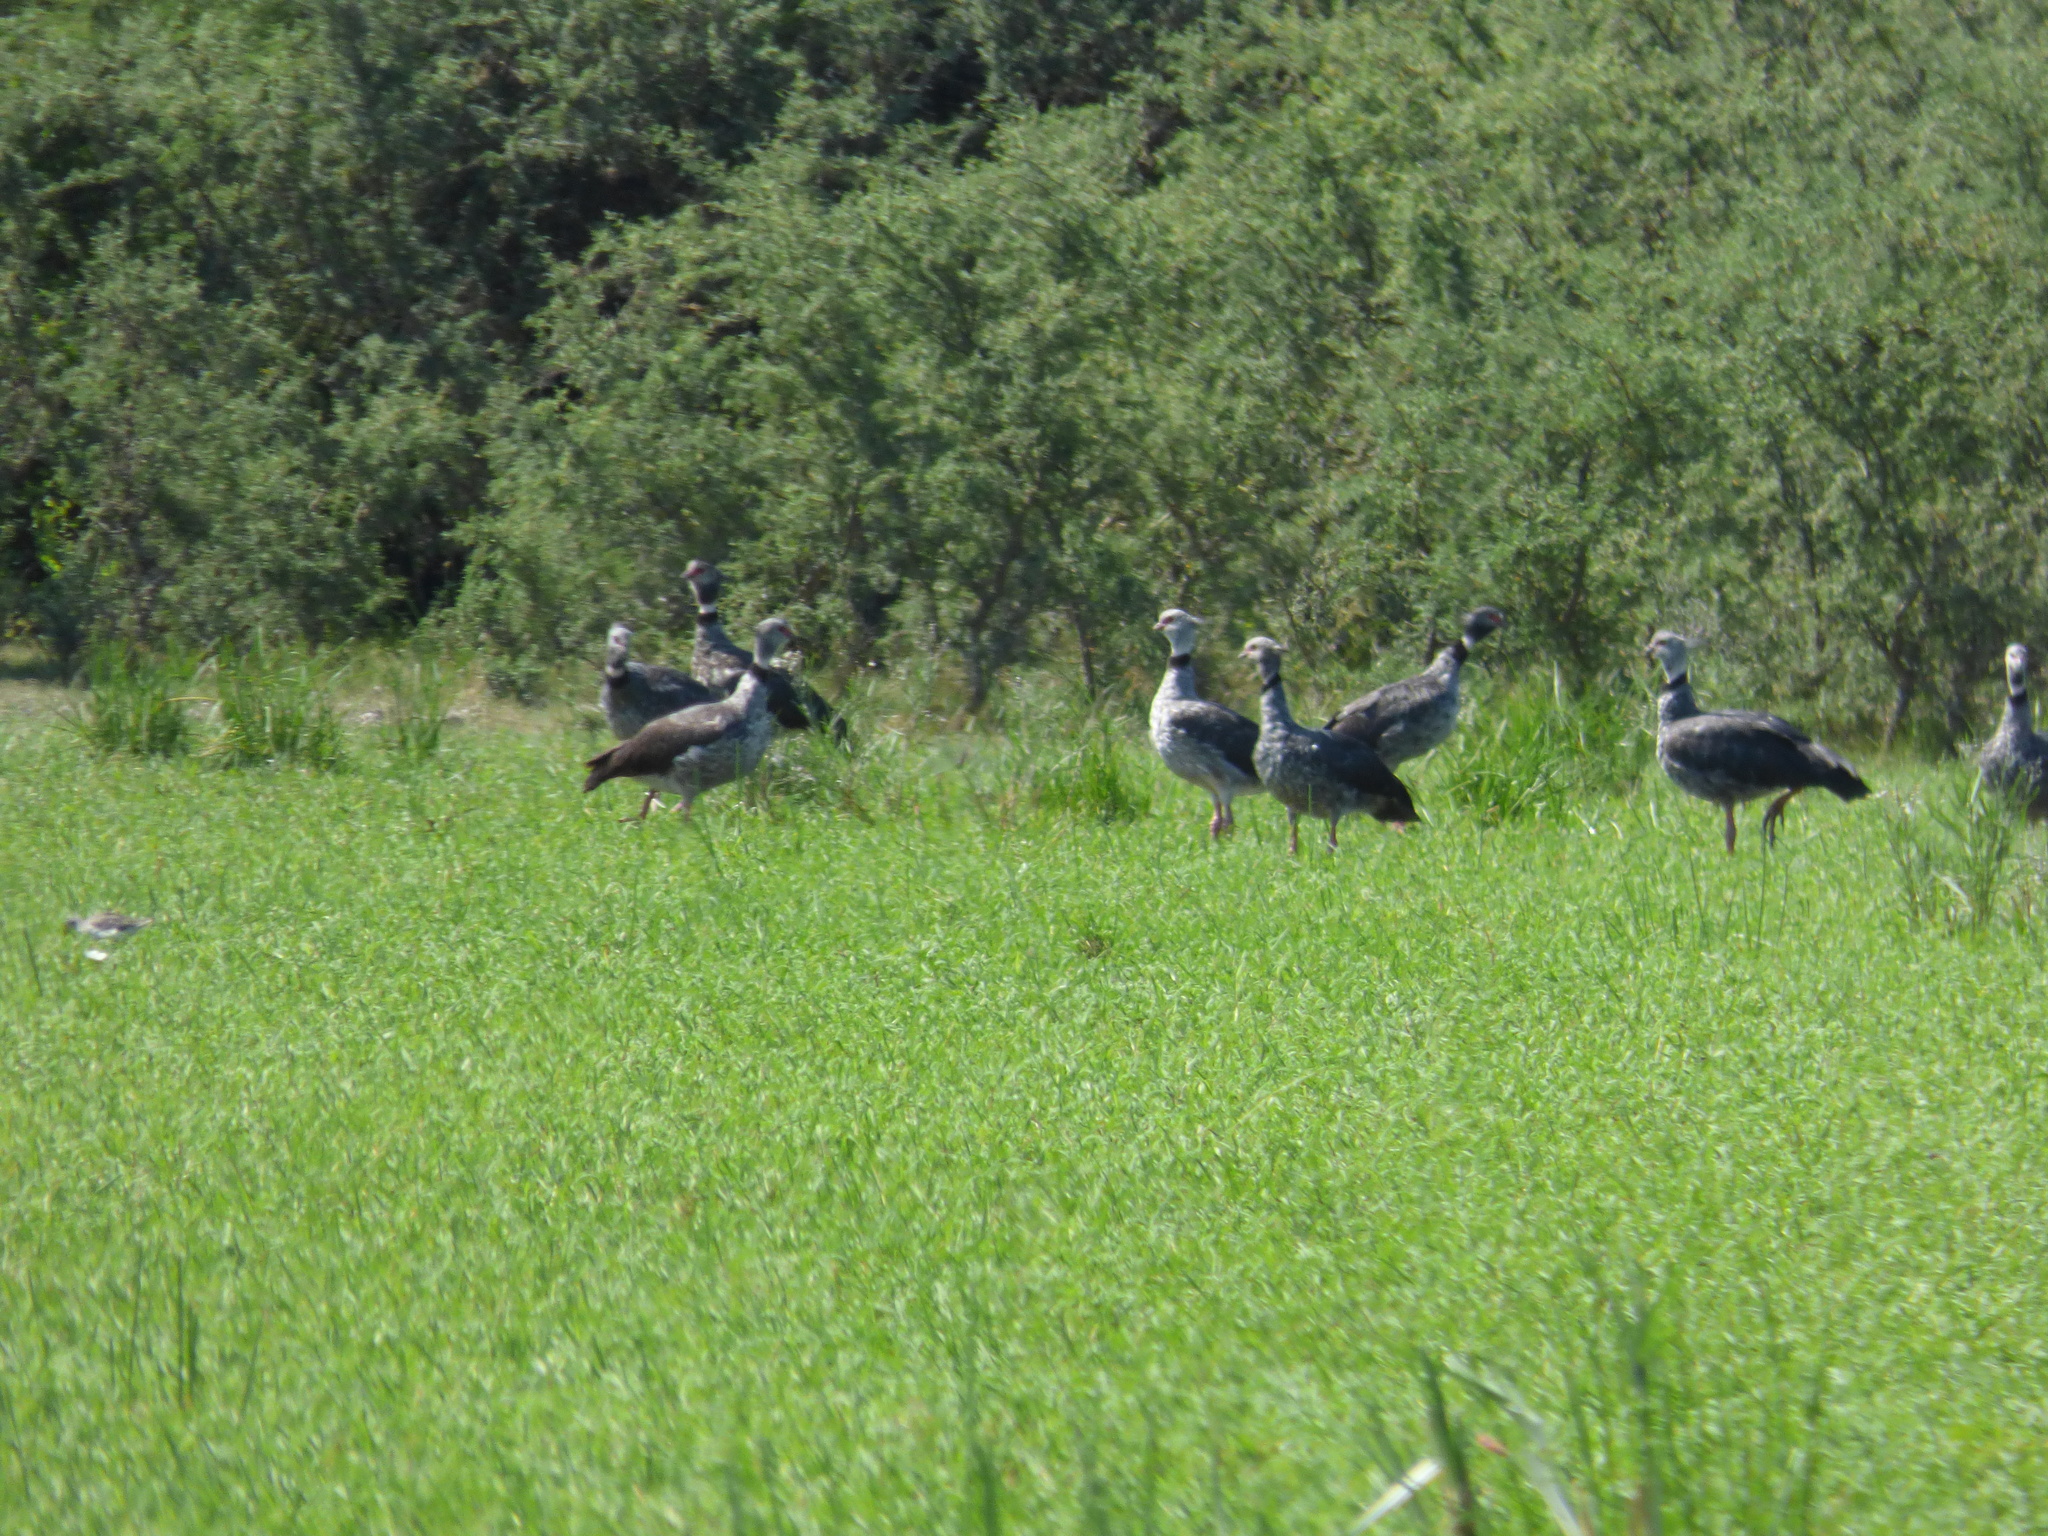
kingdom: Animalia
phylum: Chordata
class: Aves
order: Anseriformes
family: Anhimidae
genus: Chauna
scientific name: Chauna torquata
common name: Southern screamer
